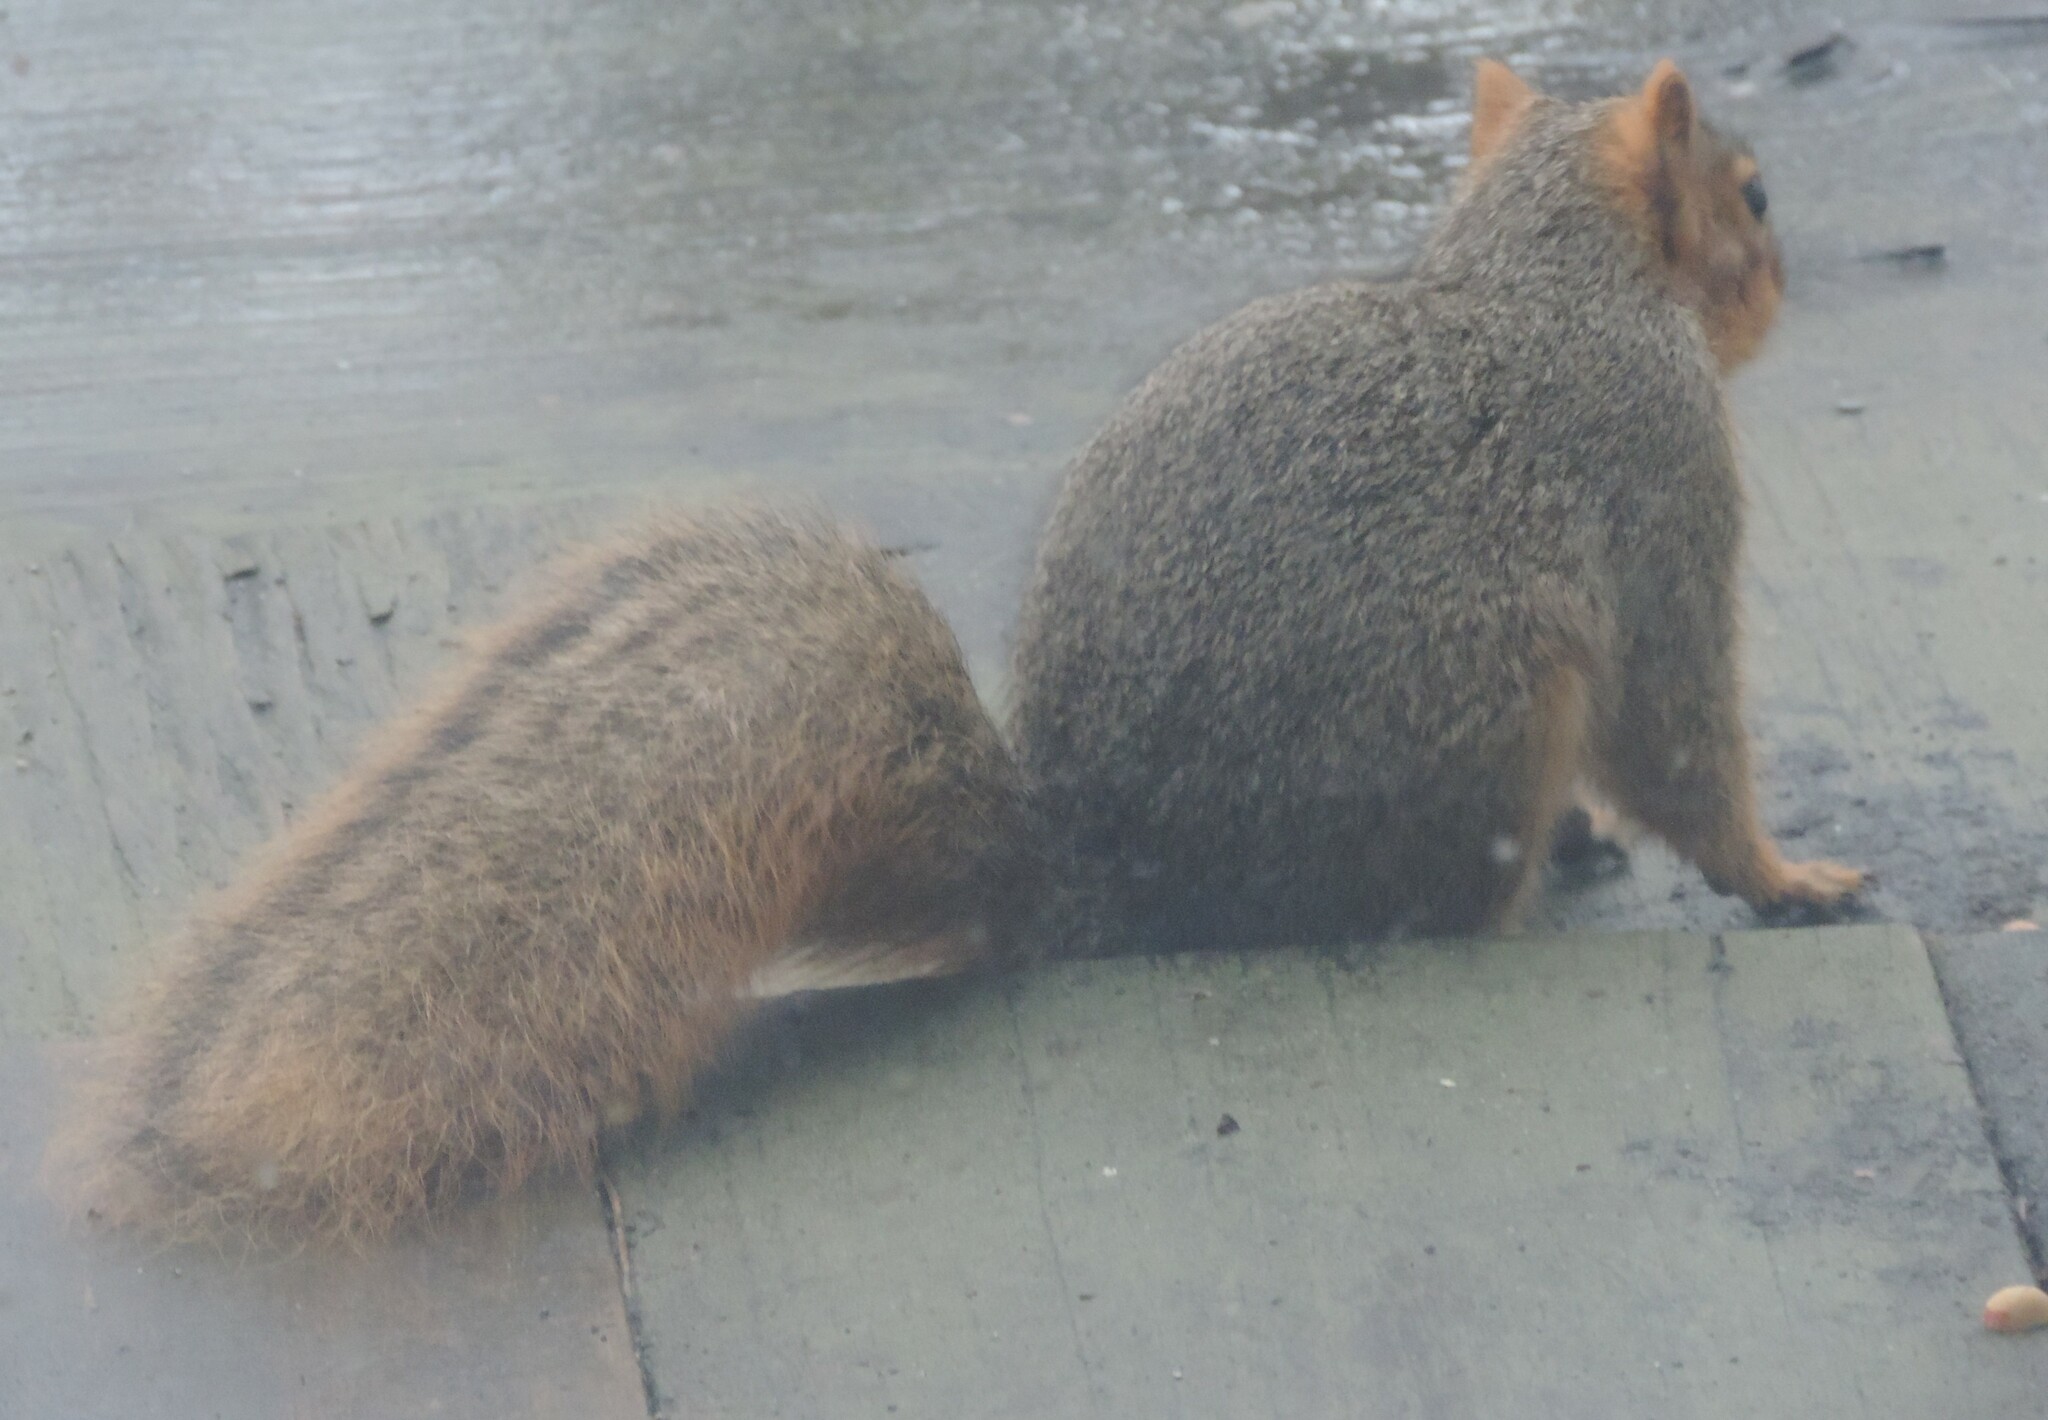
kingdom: Animalia
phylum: Chordata
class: Mammalia
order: Rodentia
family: Sciuridae
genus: Sciurus
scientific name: Sciurus niger
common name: Fox squirrel
